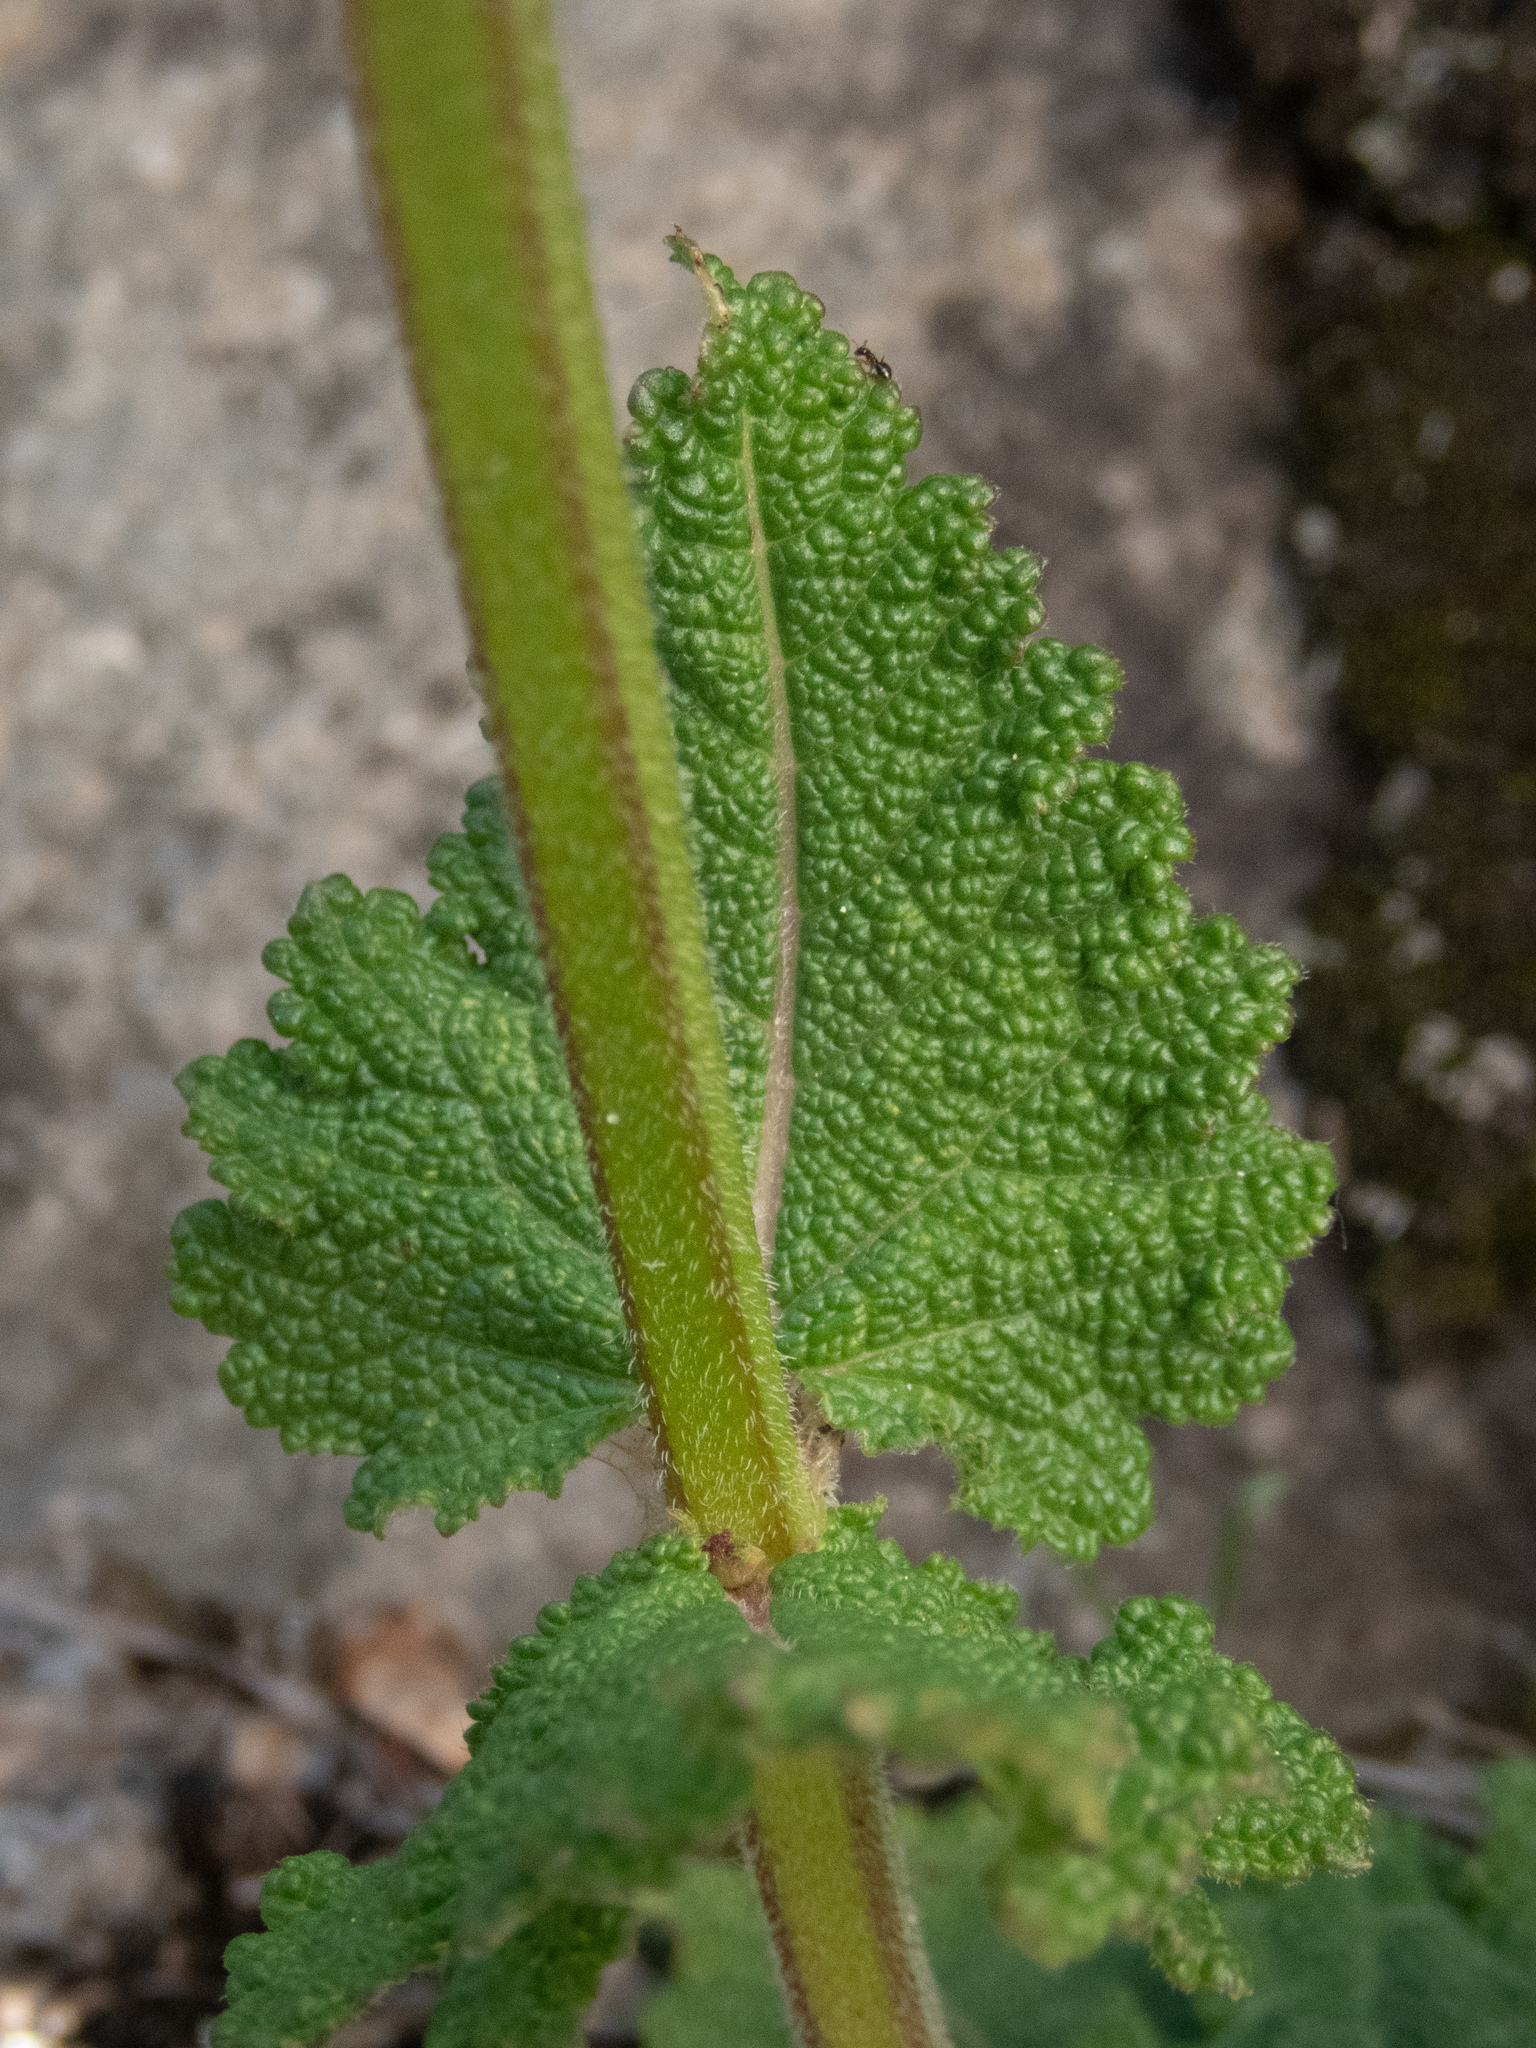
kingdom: Plantae
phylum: Tracheophyta
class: Magnoliopsida
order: Lamiales
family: Lamiaceae
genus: Salvia
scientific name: Salvia pratensis
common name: Meadow sage
